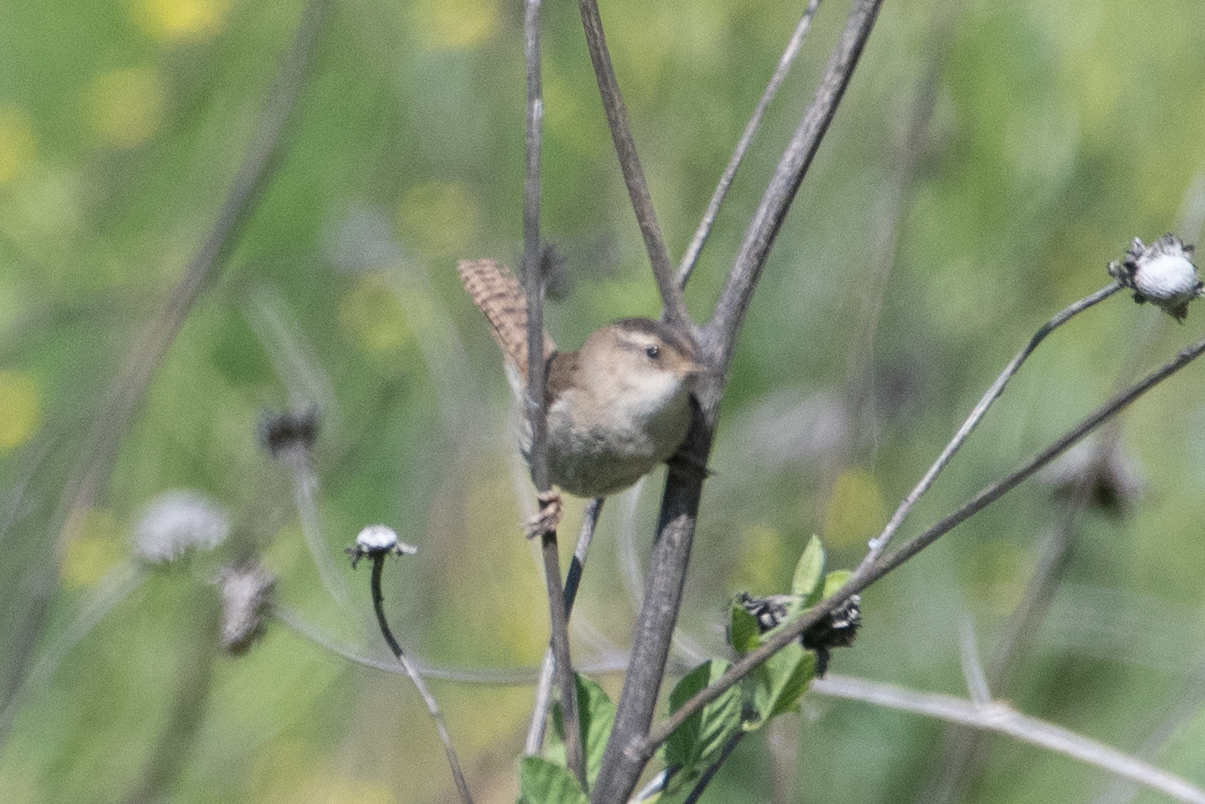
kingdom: Animalia
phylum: Chordata
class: Aves
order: Passeriformes
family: Troglodytidae
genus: Cistothorus
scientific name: Cistothorus palustris
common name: Marsh wren
